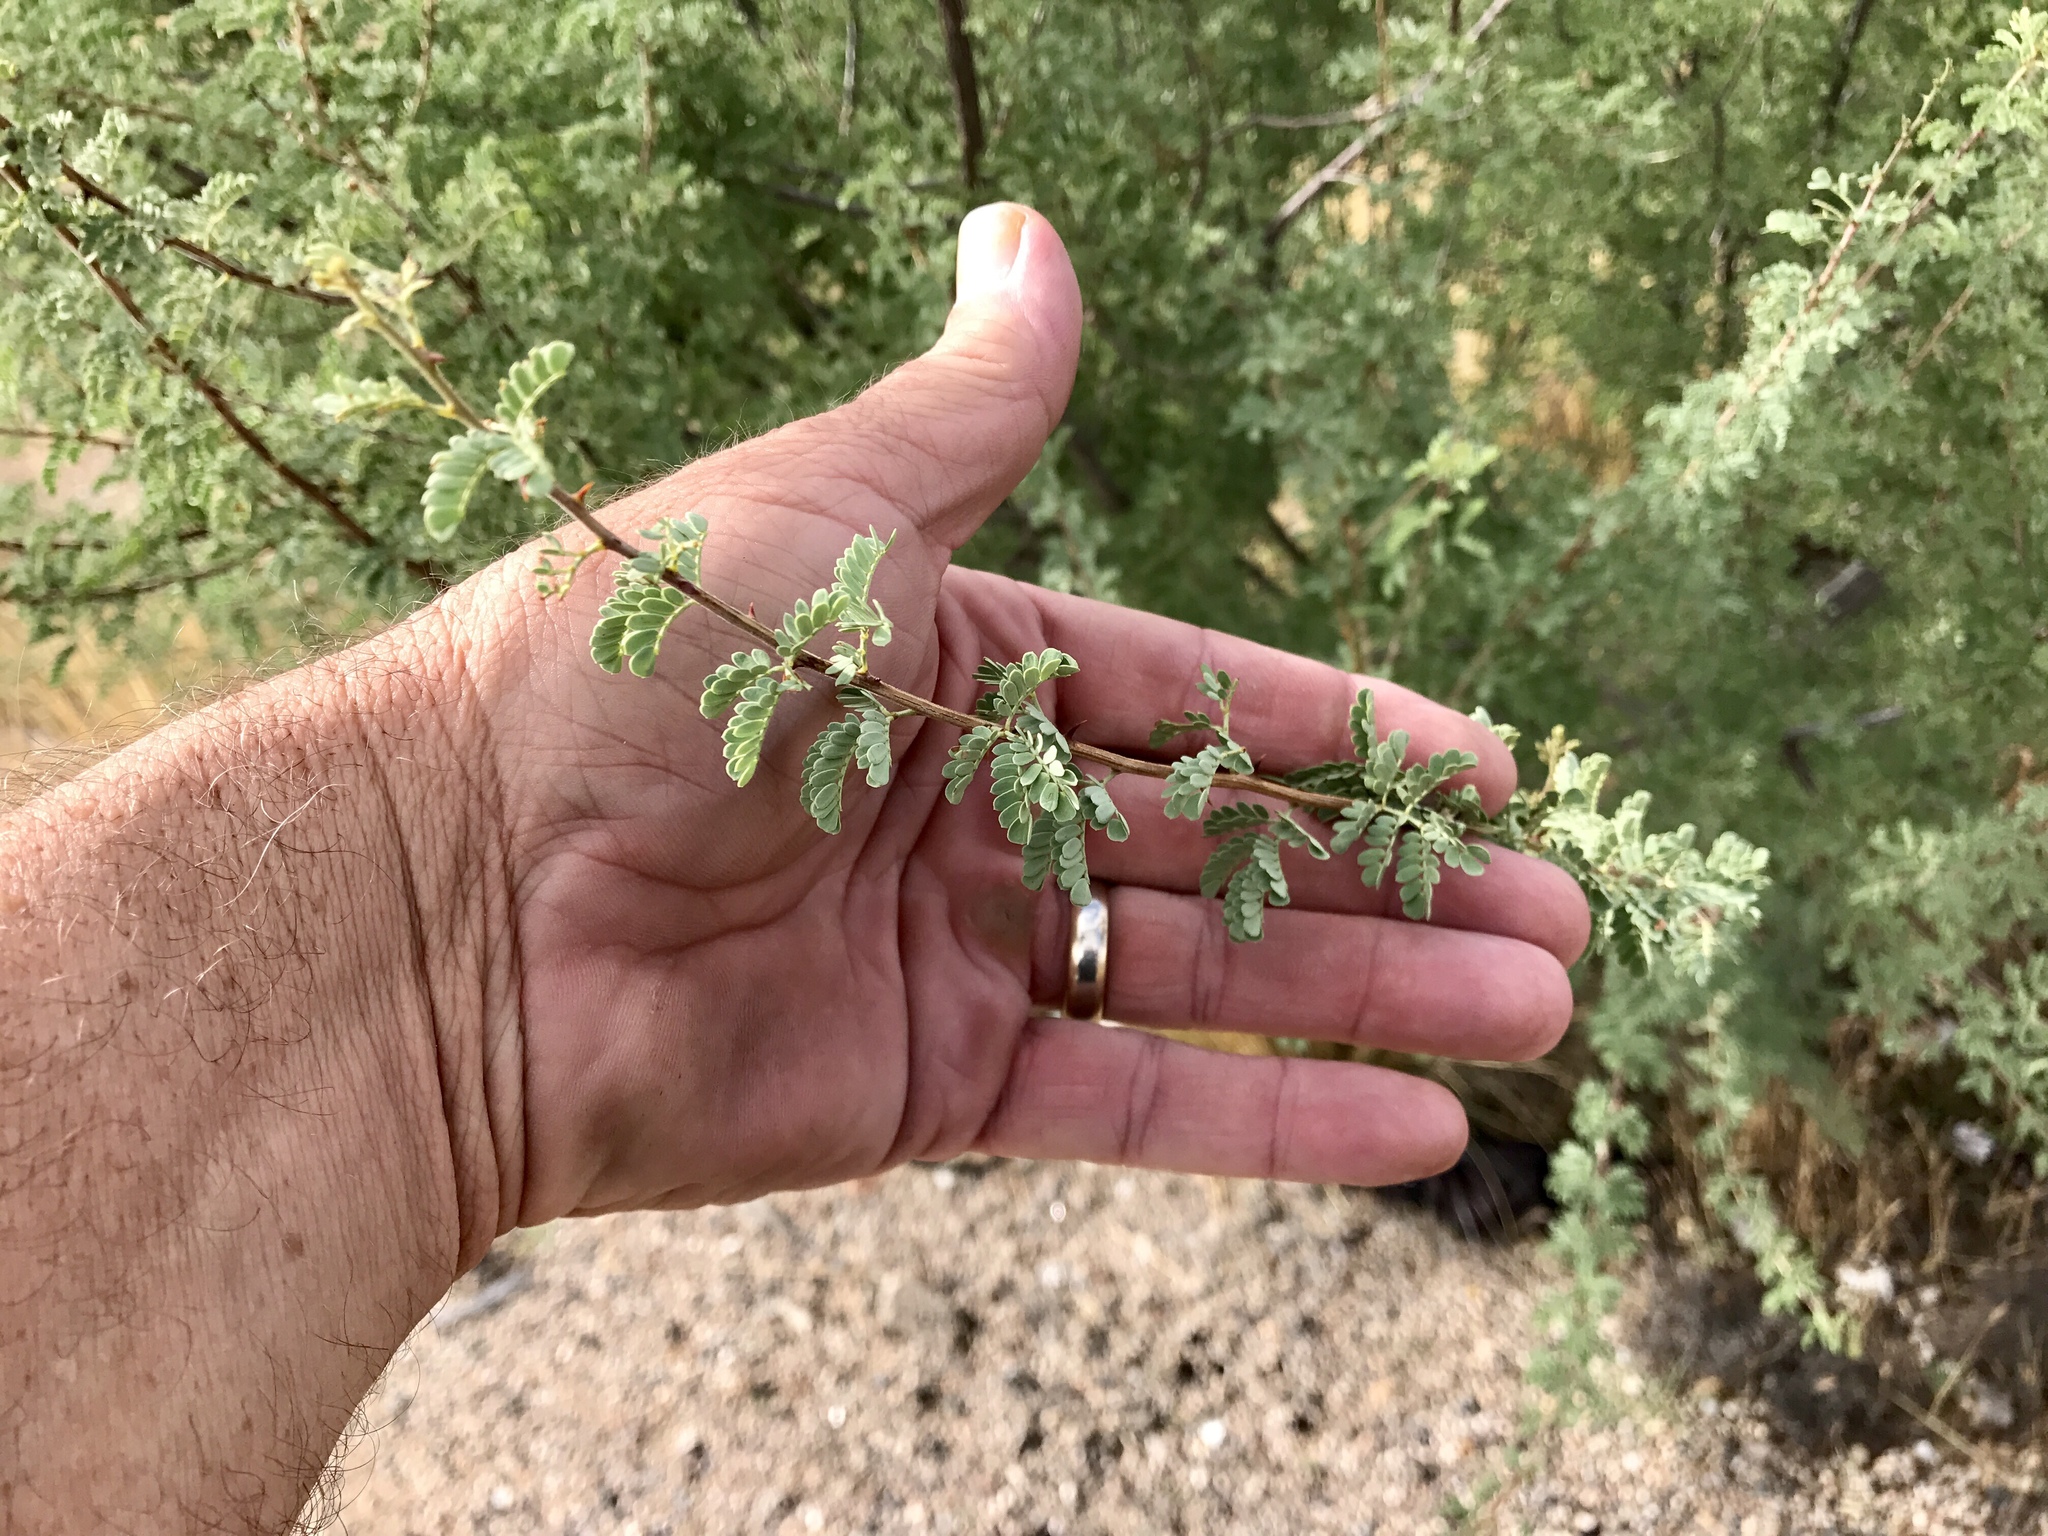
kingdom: Plantae
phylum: Tracheophyta
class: Magnoliopsida
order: Fabales
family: Fabaceae
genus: Senegalia
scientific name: Senegalia greggii
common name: Texas-mimosa
